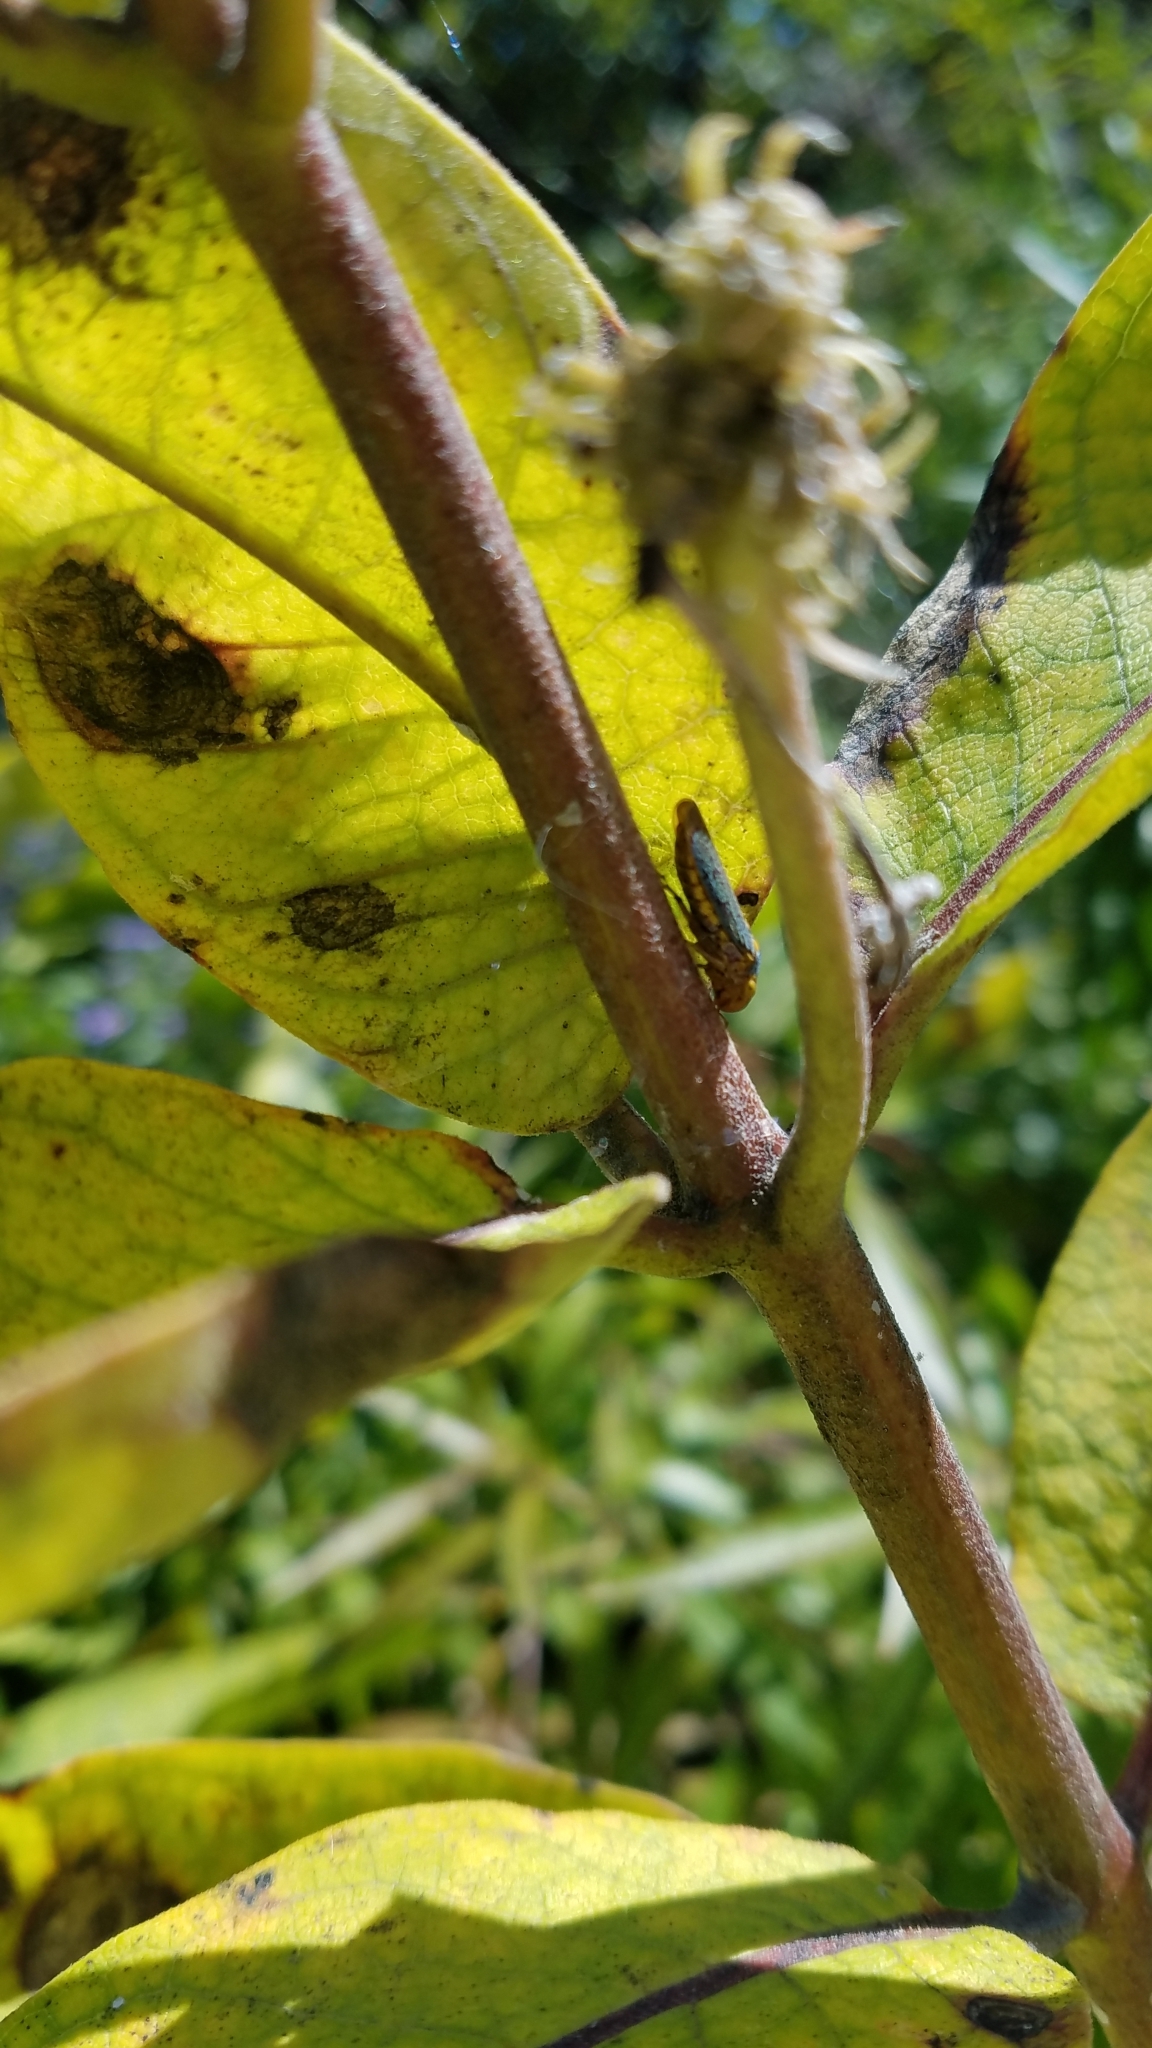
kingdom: Animalia
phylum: Arthropoda
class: Insecta
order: Hemiptera
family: Cicadellidae
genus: Oncometopia
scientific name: Oncometopia orbona
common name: Broad-headed sharpshooter
